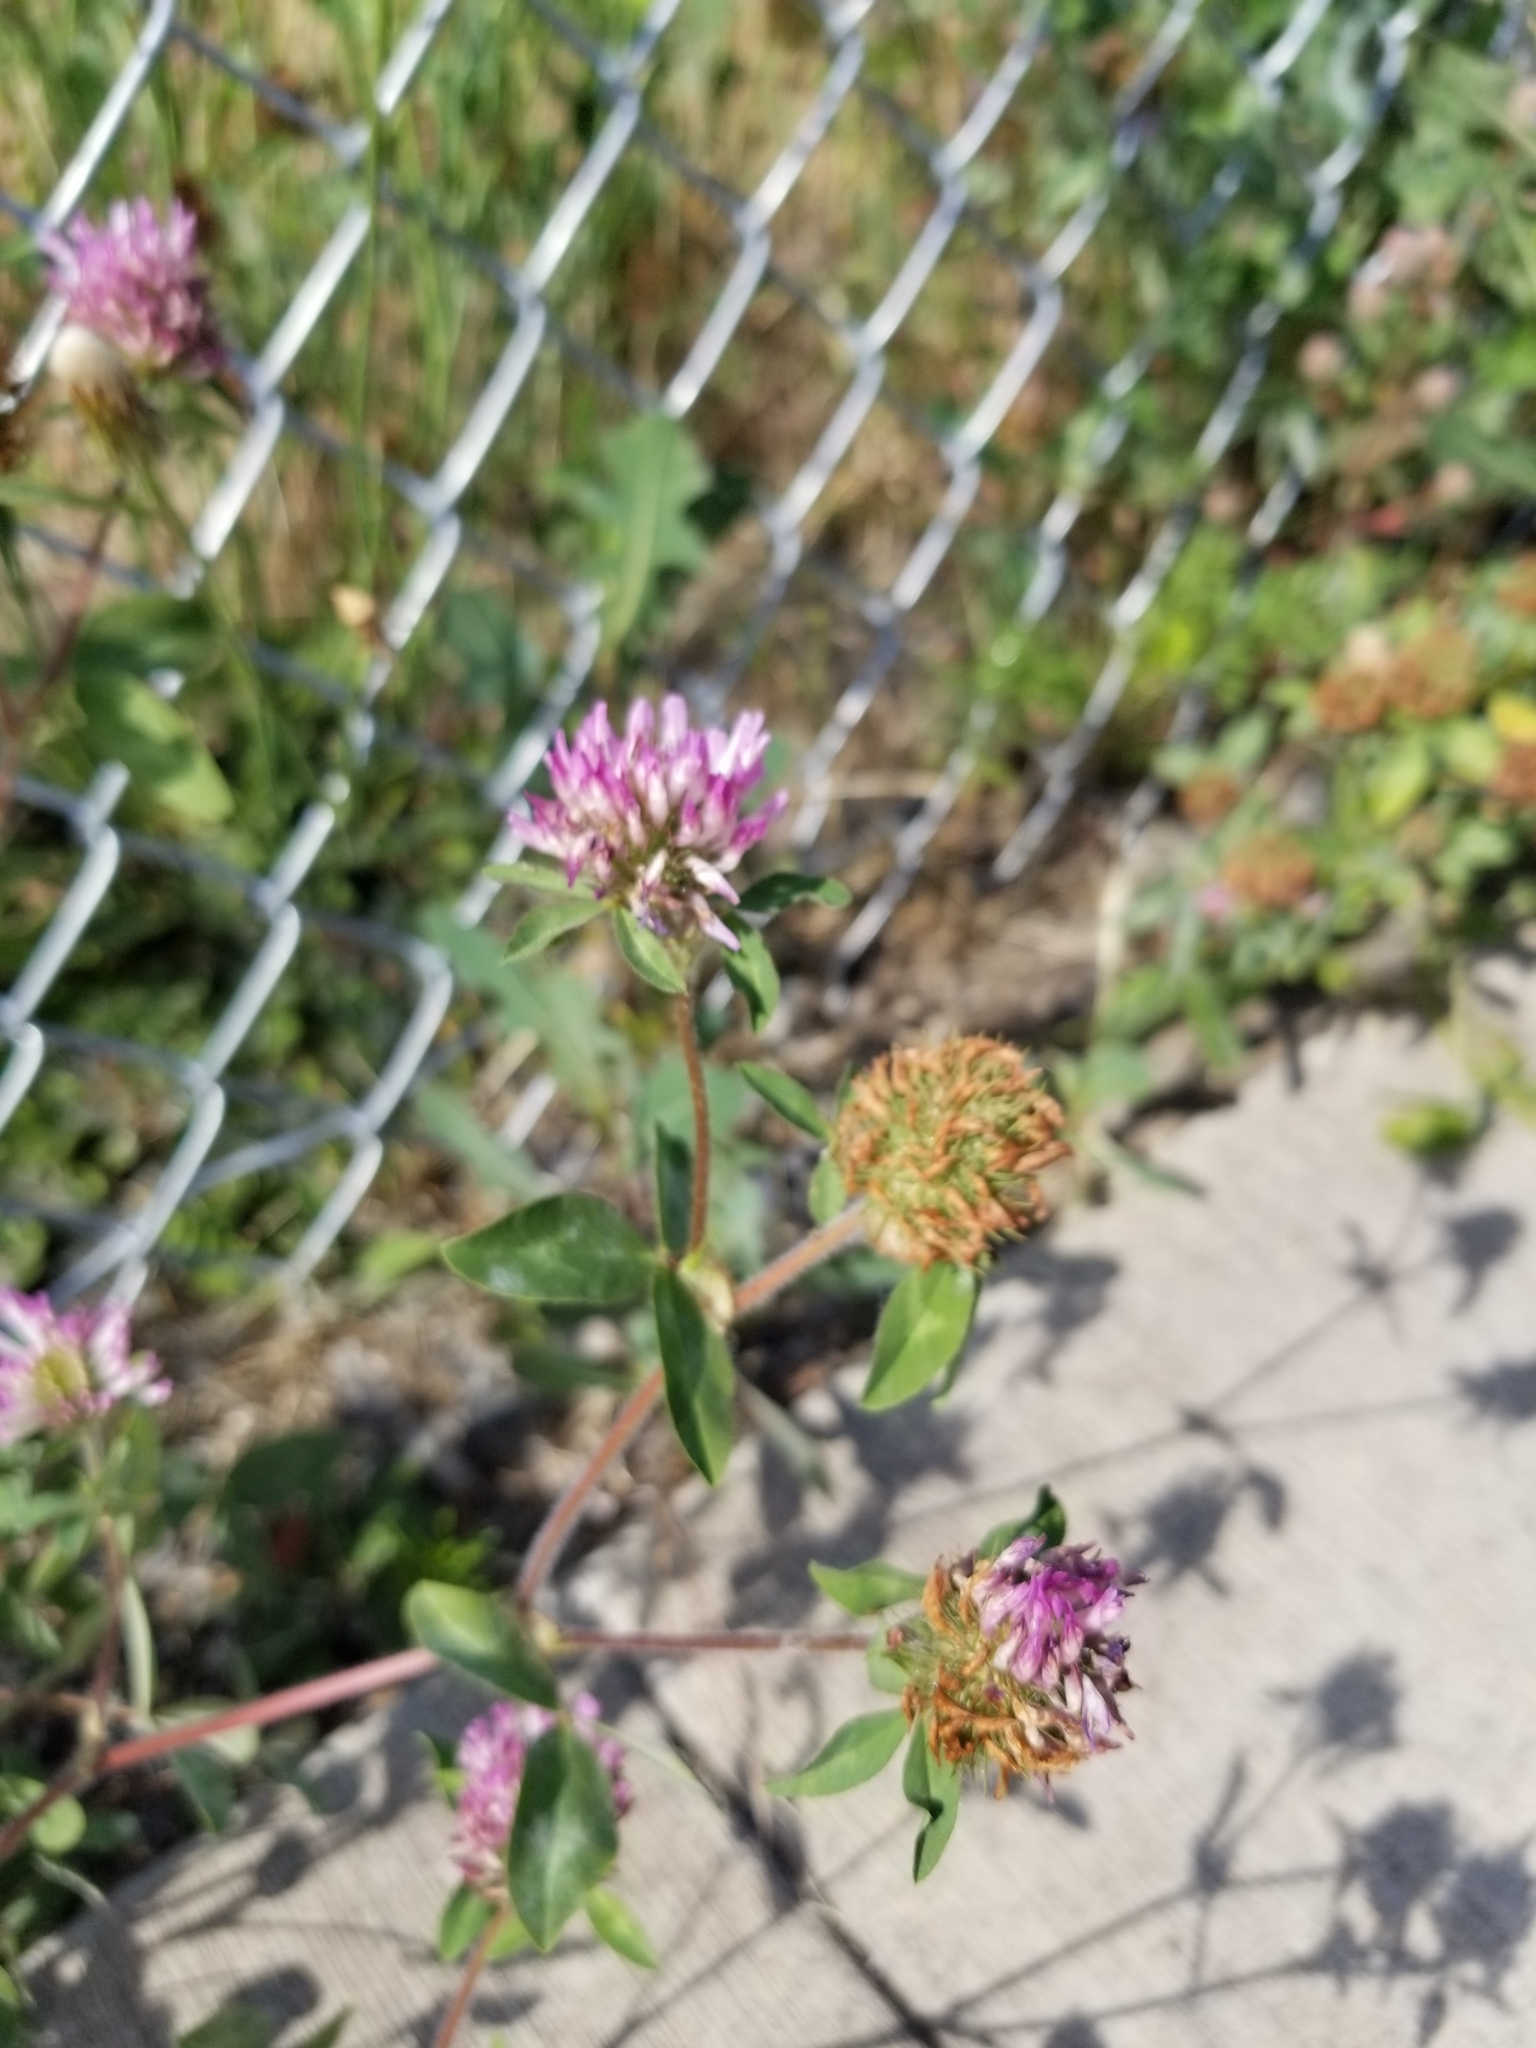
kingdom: Plantae
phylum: Tracheophyta
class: Magnoliopsida
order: Fabales
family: Fabaceae
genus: Trifolium
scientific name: Trifolium pratense
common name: Red clover
